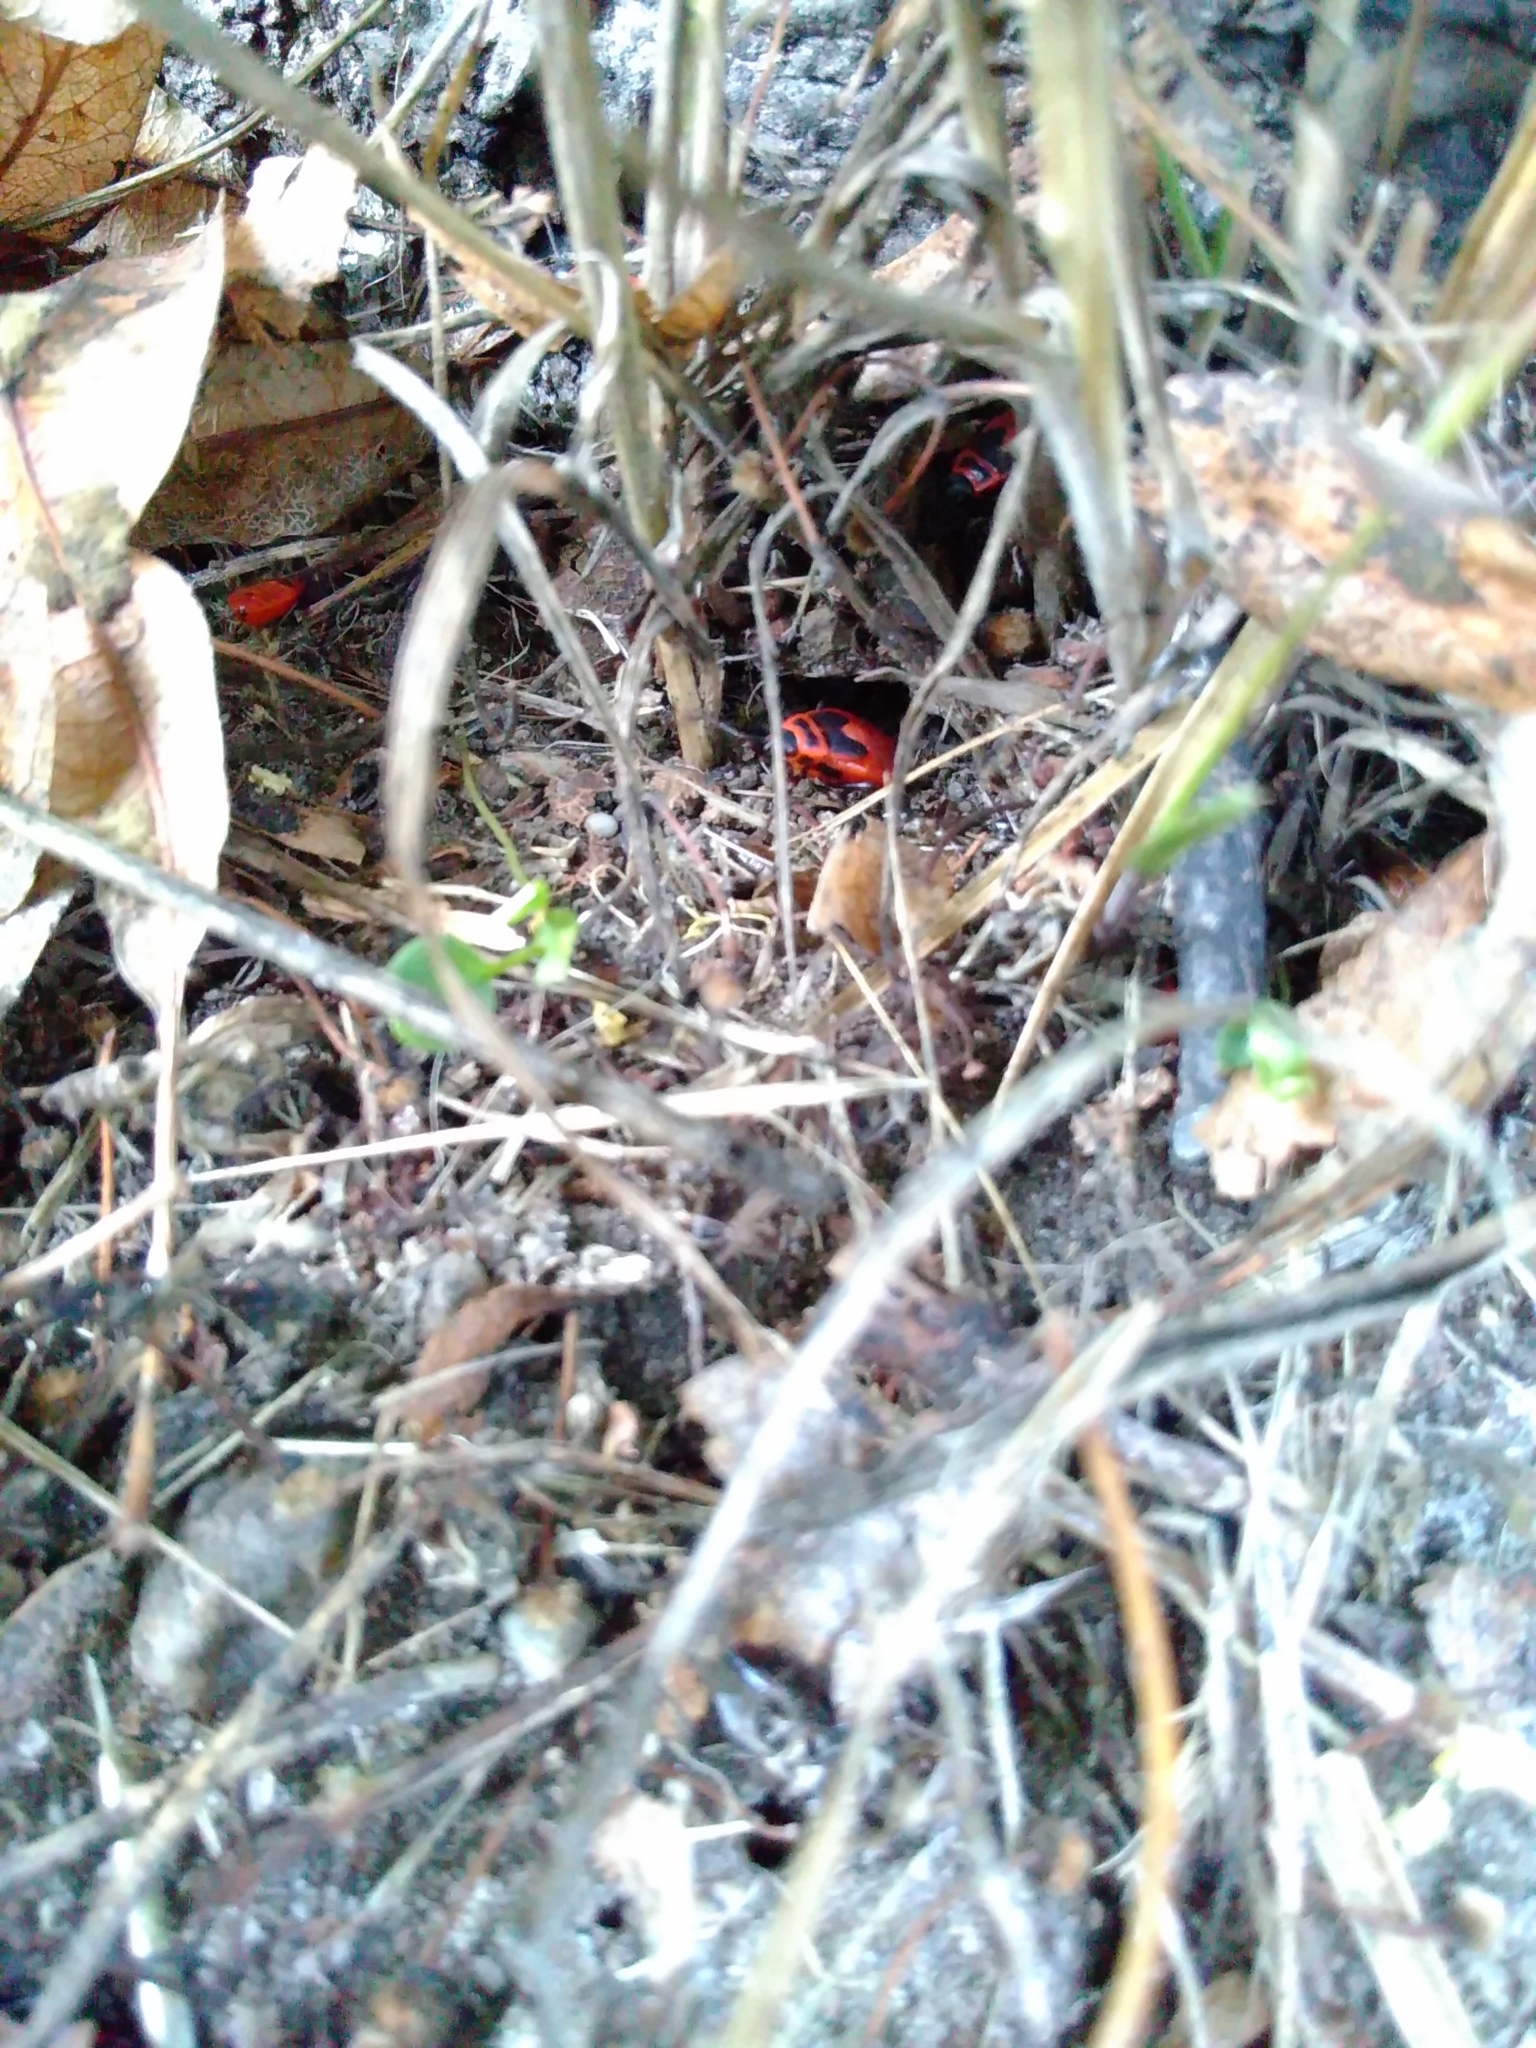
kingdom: Animalia
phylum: Arthropoda
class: Insecta
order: Hemiptera
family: Pyrrhocoridae
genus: Pyrrhocoris
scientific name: Pyrrhocoris apterus
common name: Firebug
